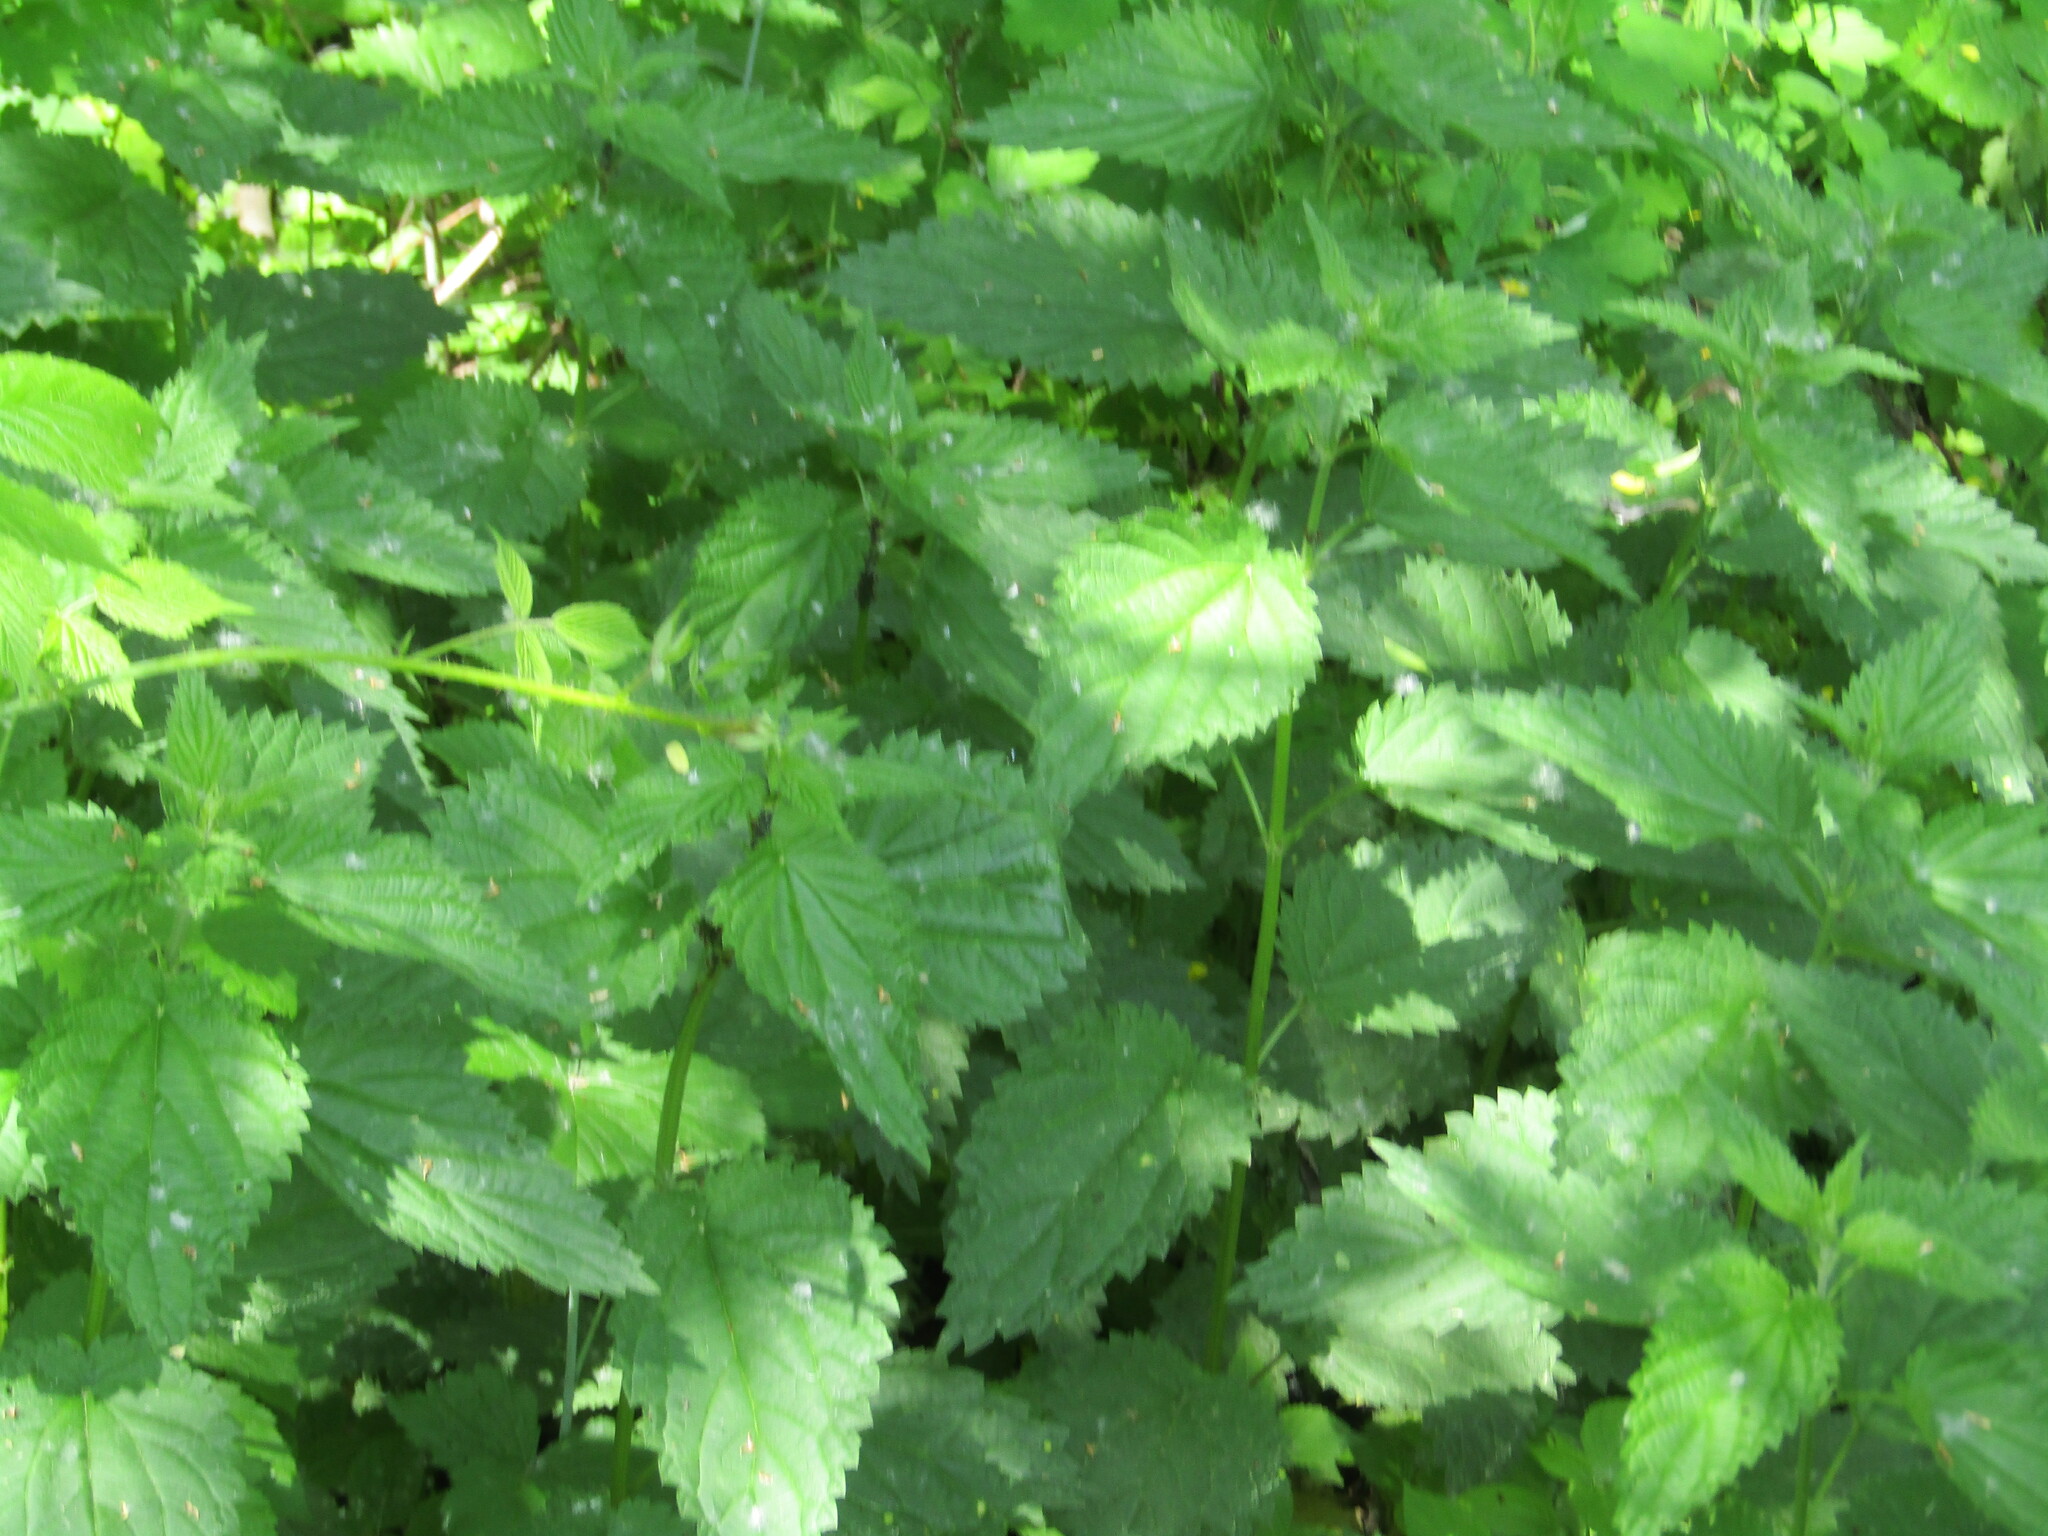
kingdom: Plantae
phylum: Tracheophyta
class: Magnoliopsida
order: Rosales
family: Urticaceae
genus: Urtica
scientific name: Urtica dioica
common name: Common nettle
